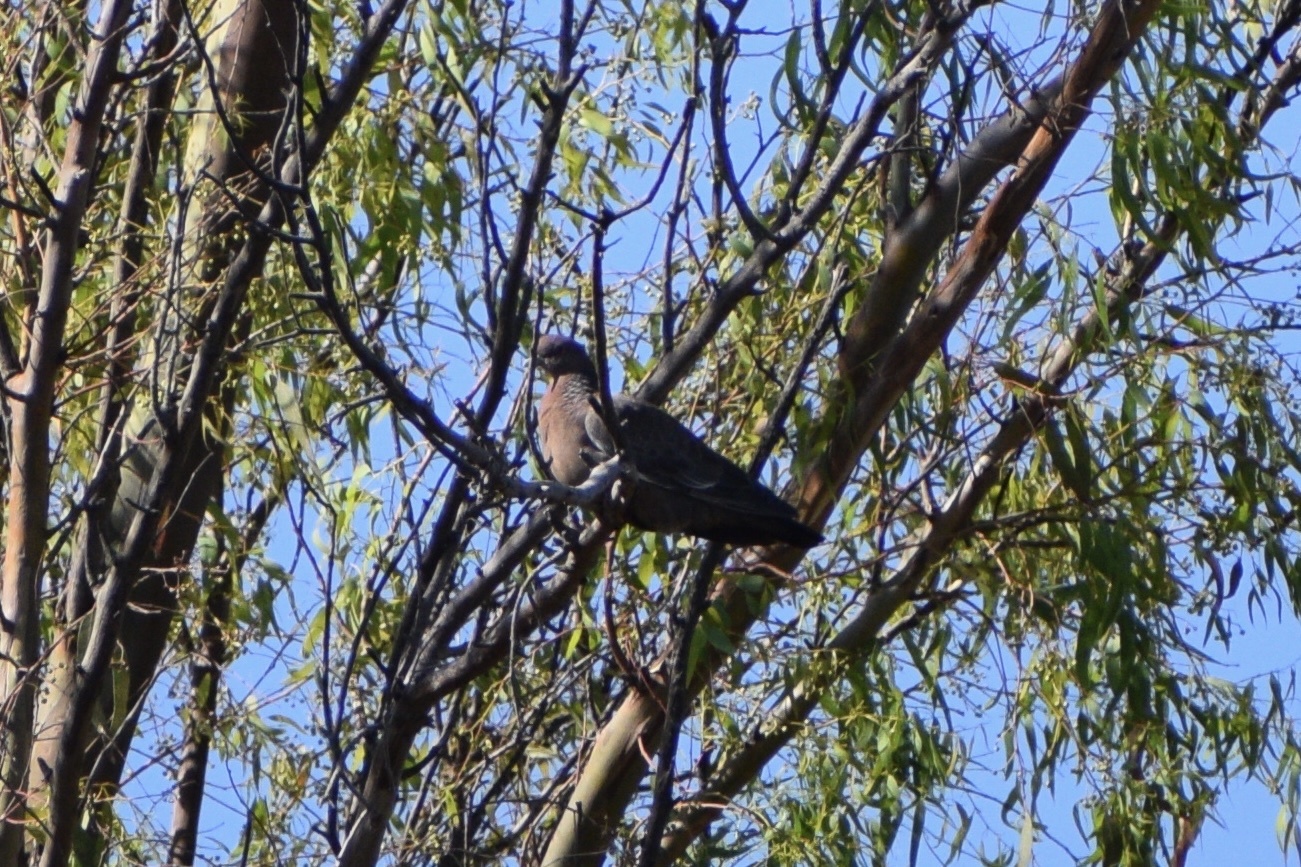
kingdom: Animalia
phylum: Chordata
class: Aves
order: Columbiformes
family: Columbidae
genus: Patagioenas
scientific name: Patagioenas picazuro
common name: Picazuro pigeon
